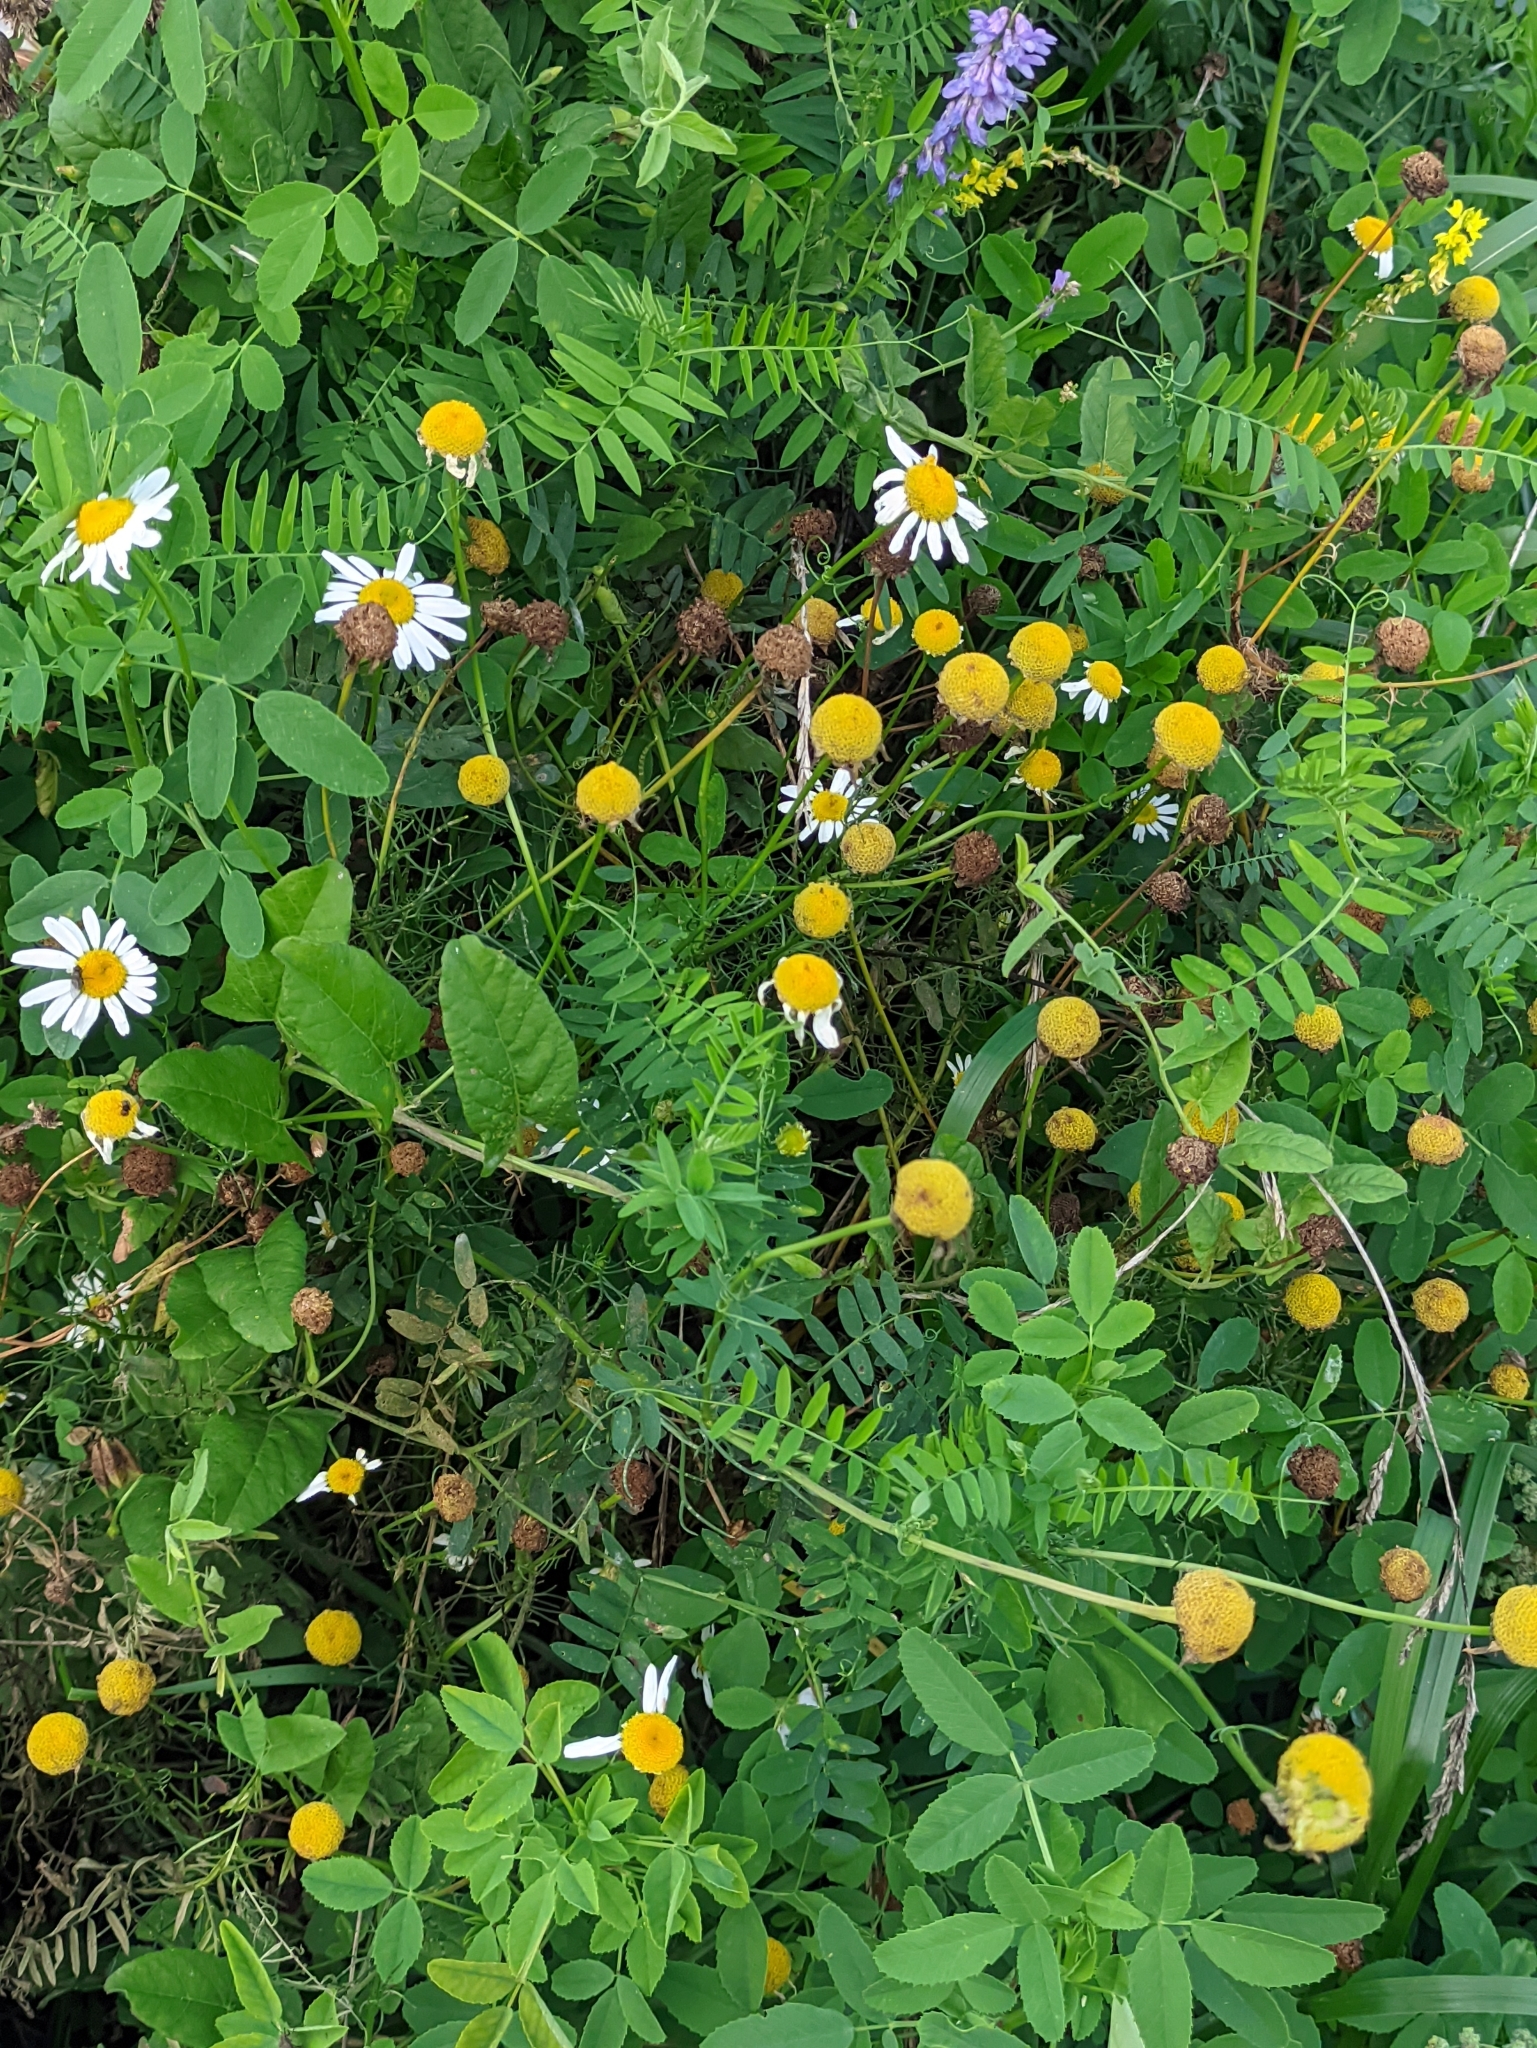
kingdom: Plantae
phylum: Tracheophyta
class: Magnoliopsida
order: Asterales
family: Asteraceae
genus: Tripleurospermum
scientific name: Tripleurospermum inodorum
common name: Scentless mayweed
